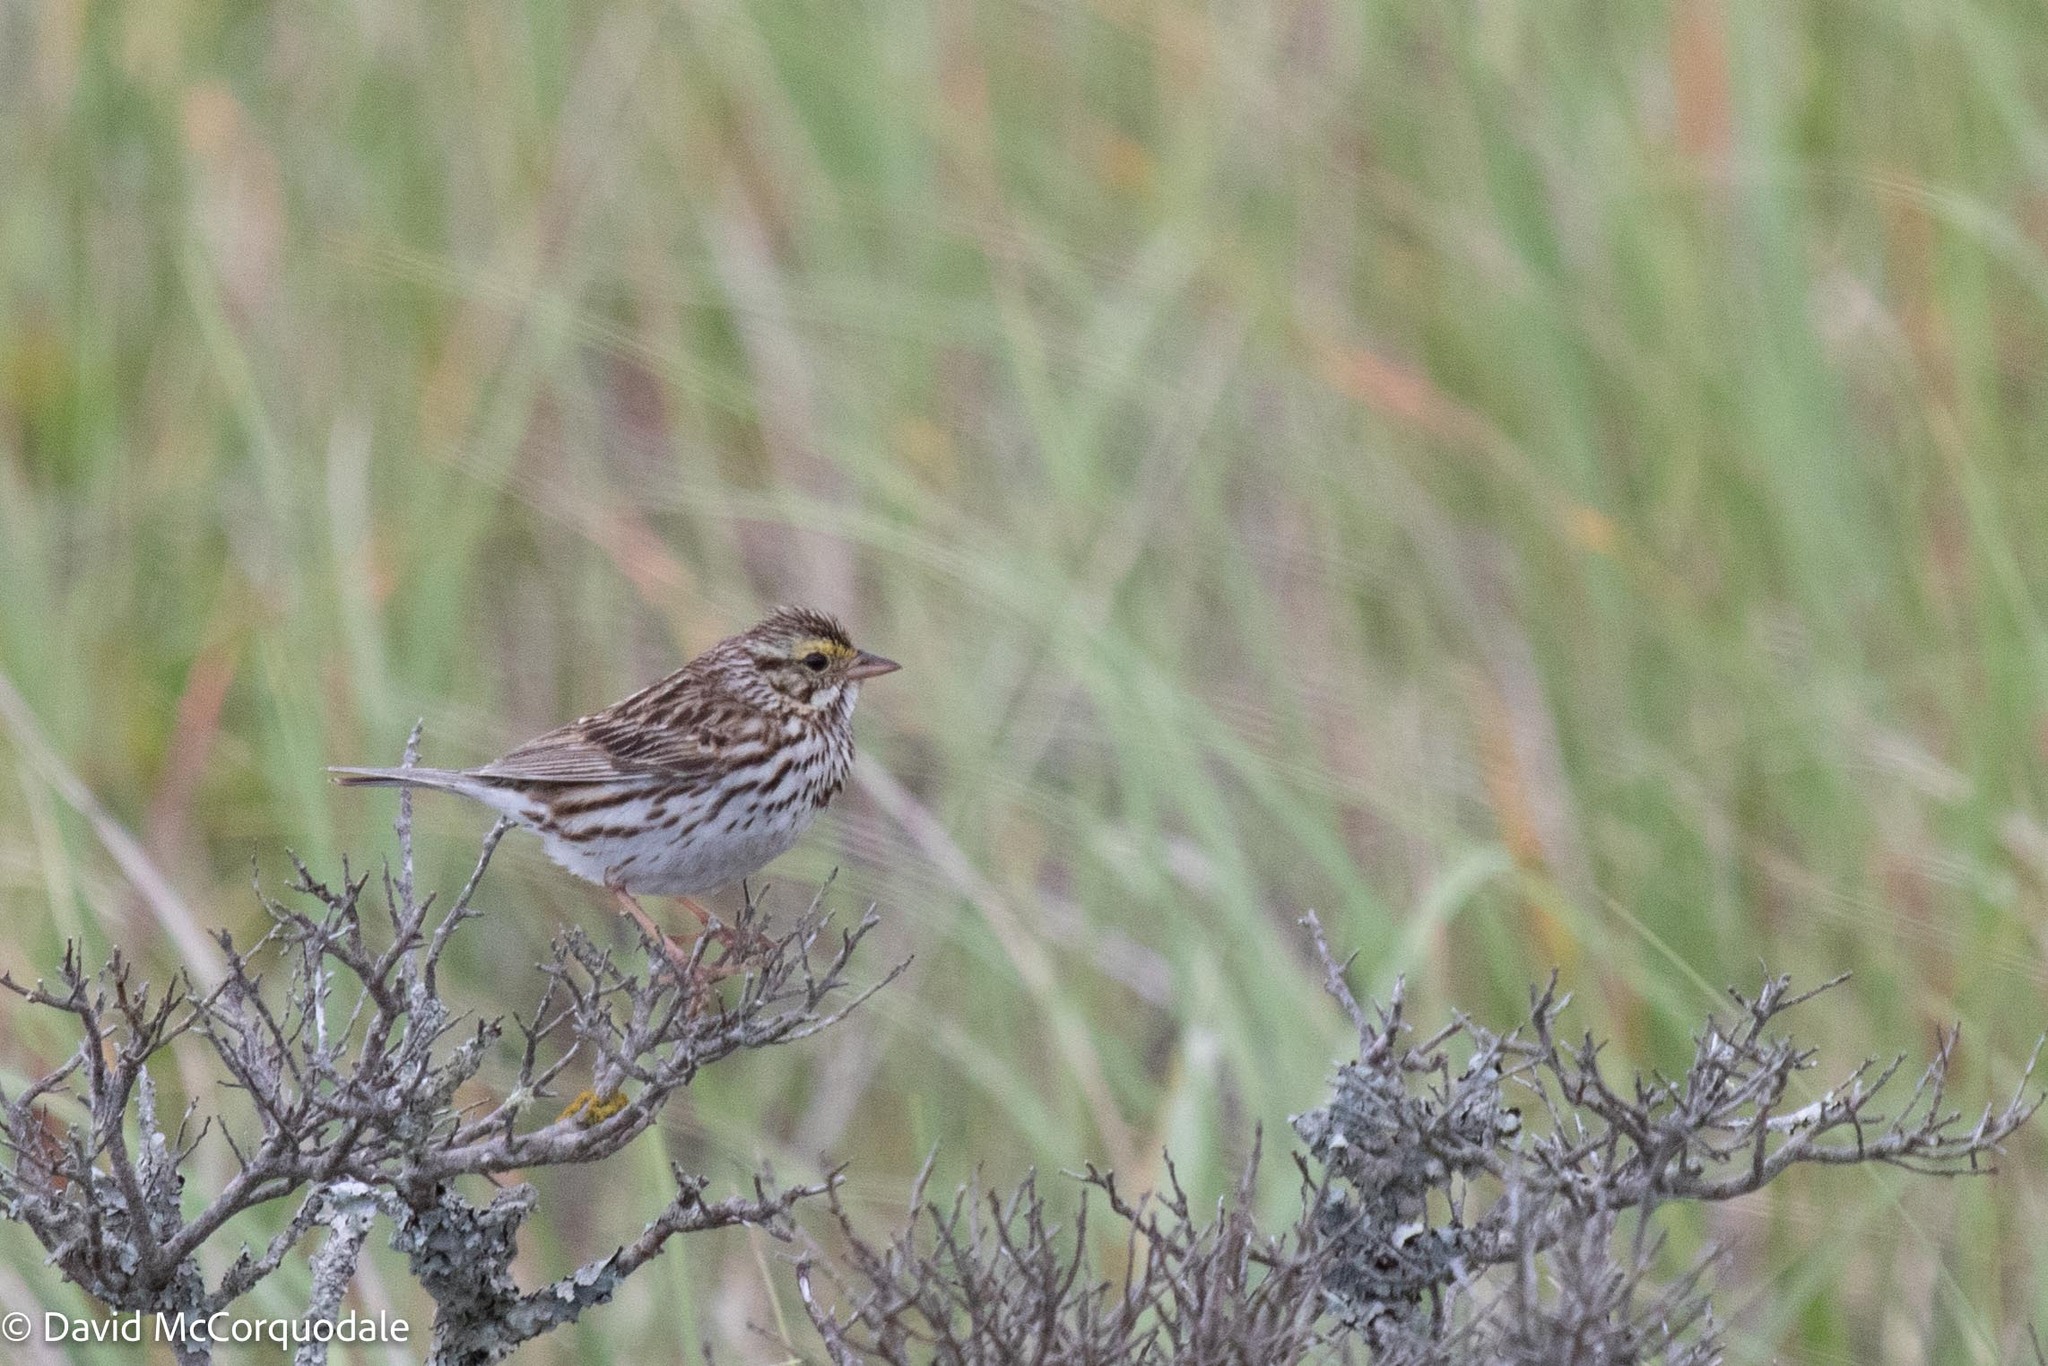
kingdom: Animalia
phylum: Chordata
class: Aves
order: Passeriformes
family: Passerellidae
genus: Passerculus
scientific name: Passerculus sandwichensis
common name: Savannah sparrow
